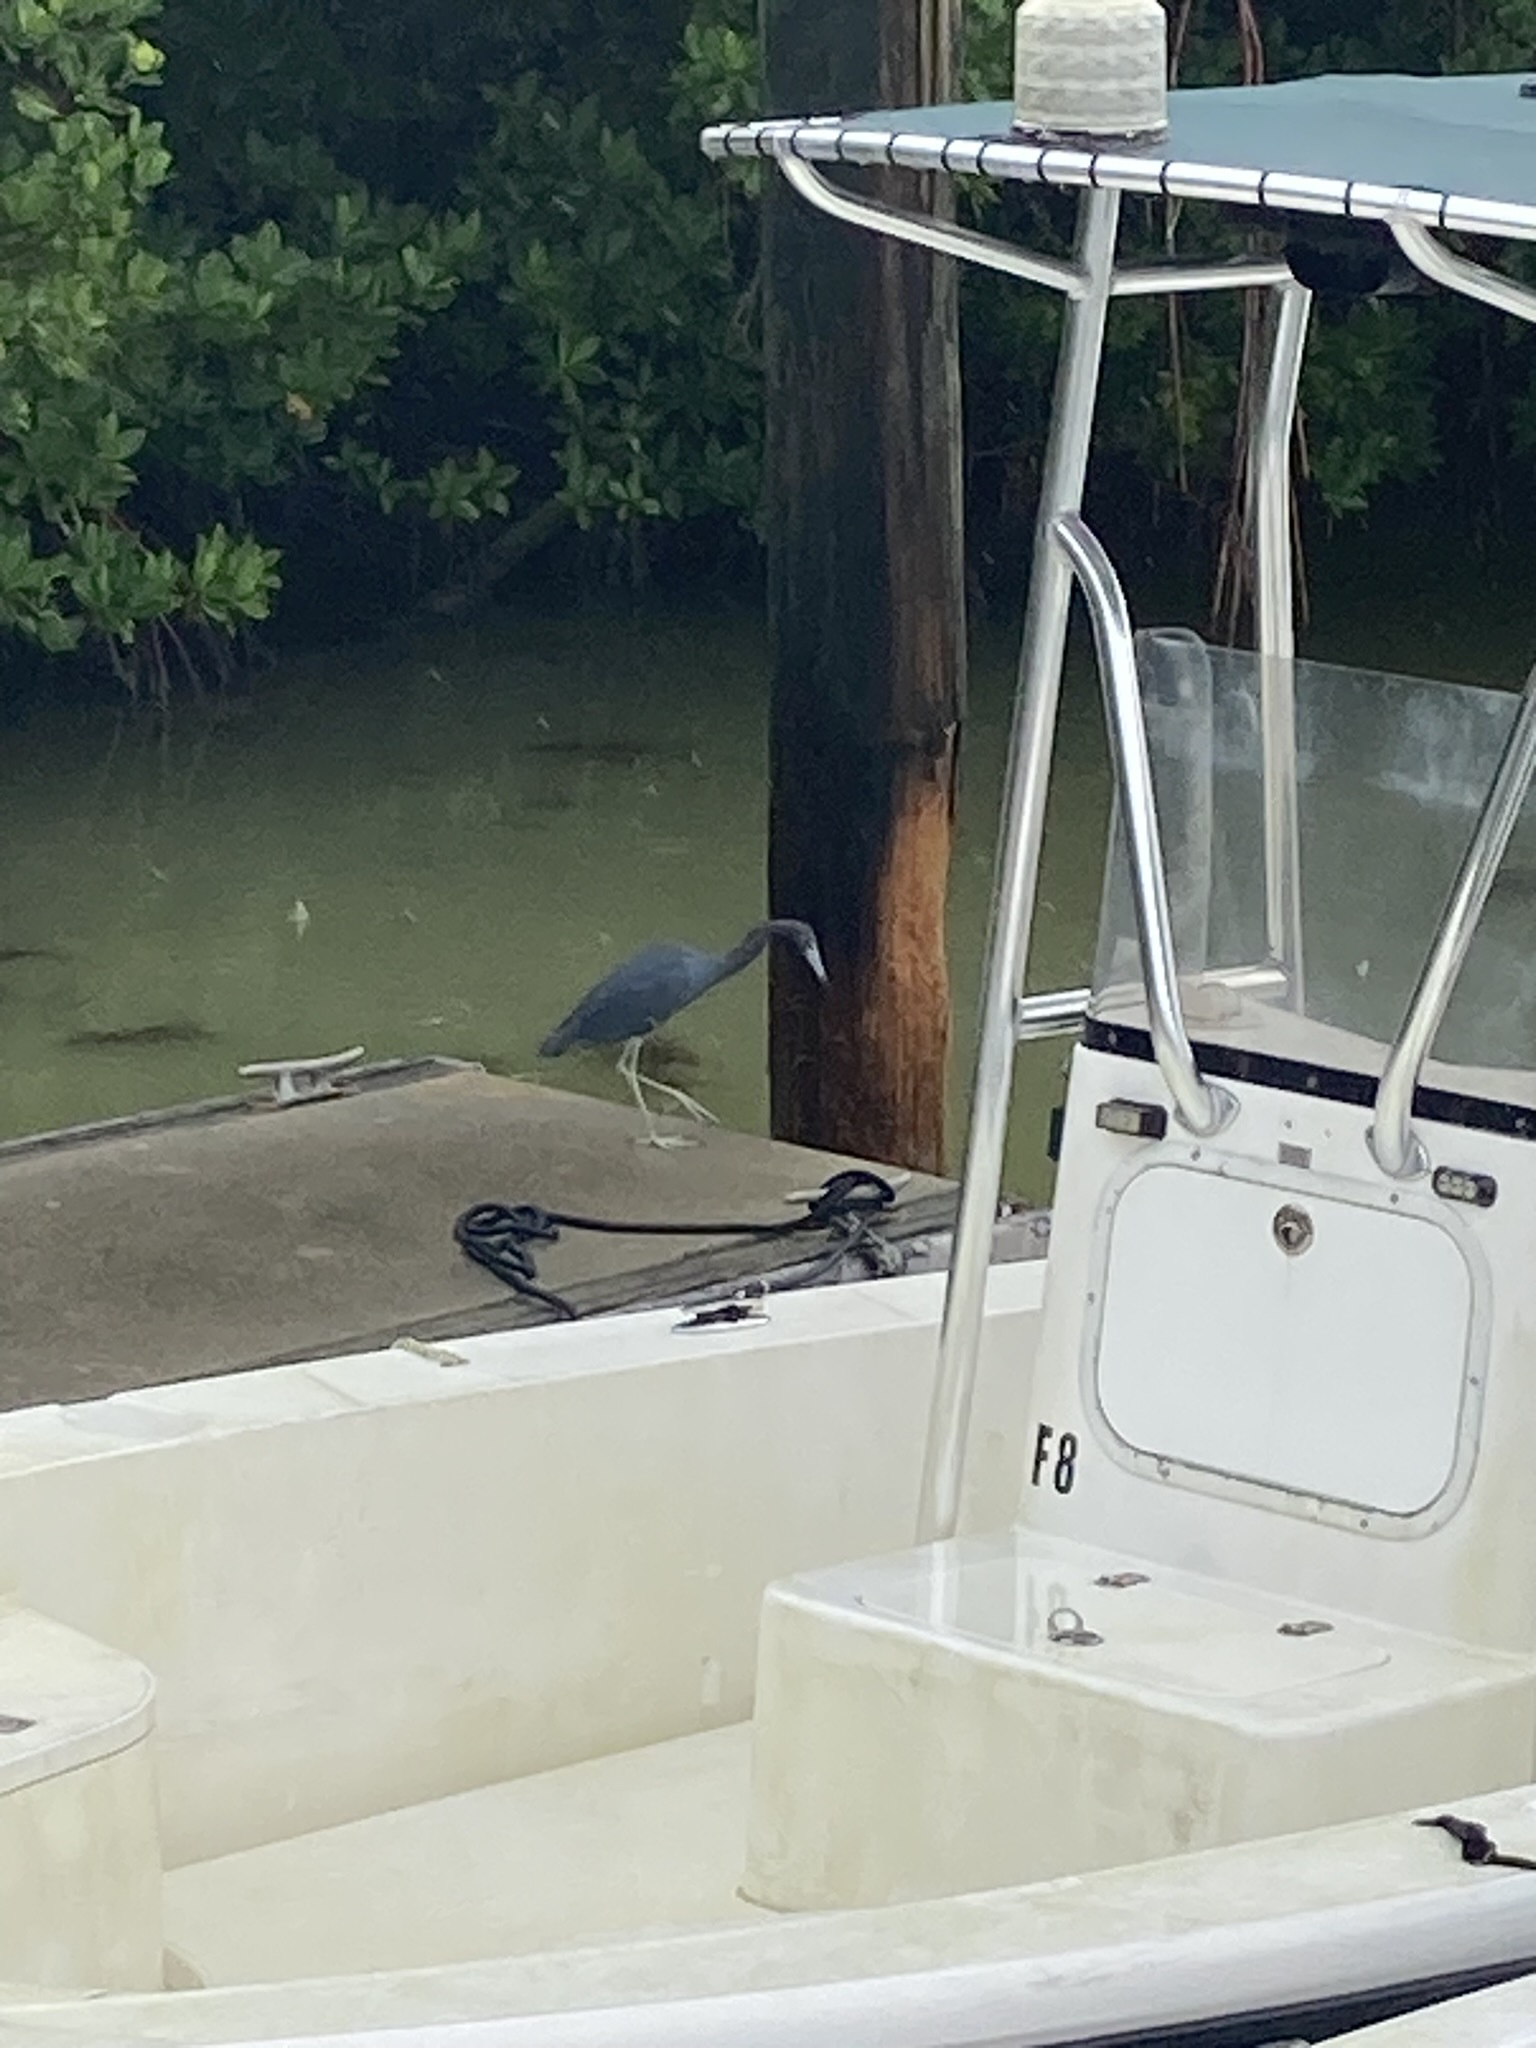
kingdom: Animalia
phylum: Chordata
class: Aves
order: Pelecaniformes
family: Ardeidae
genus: Egretta
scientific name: Egretta caerulea
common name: Little blue heron
